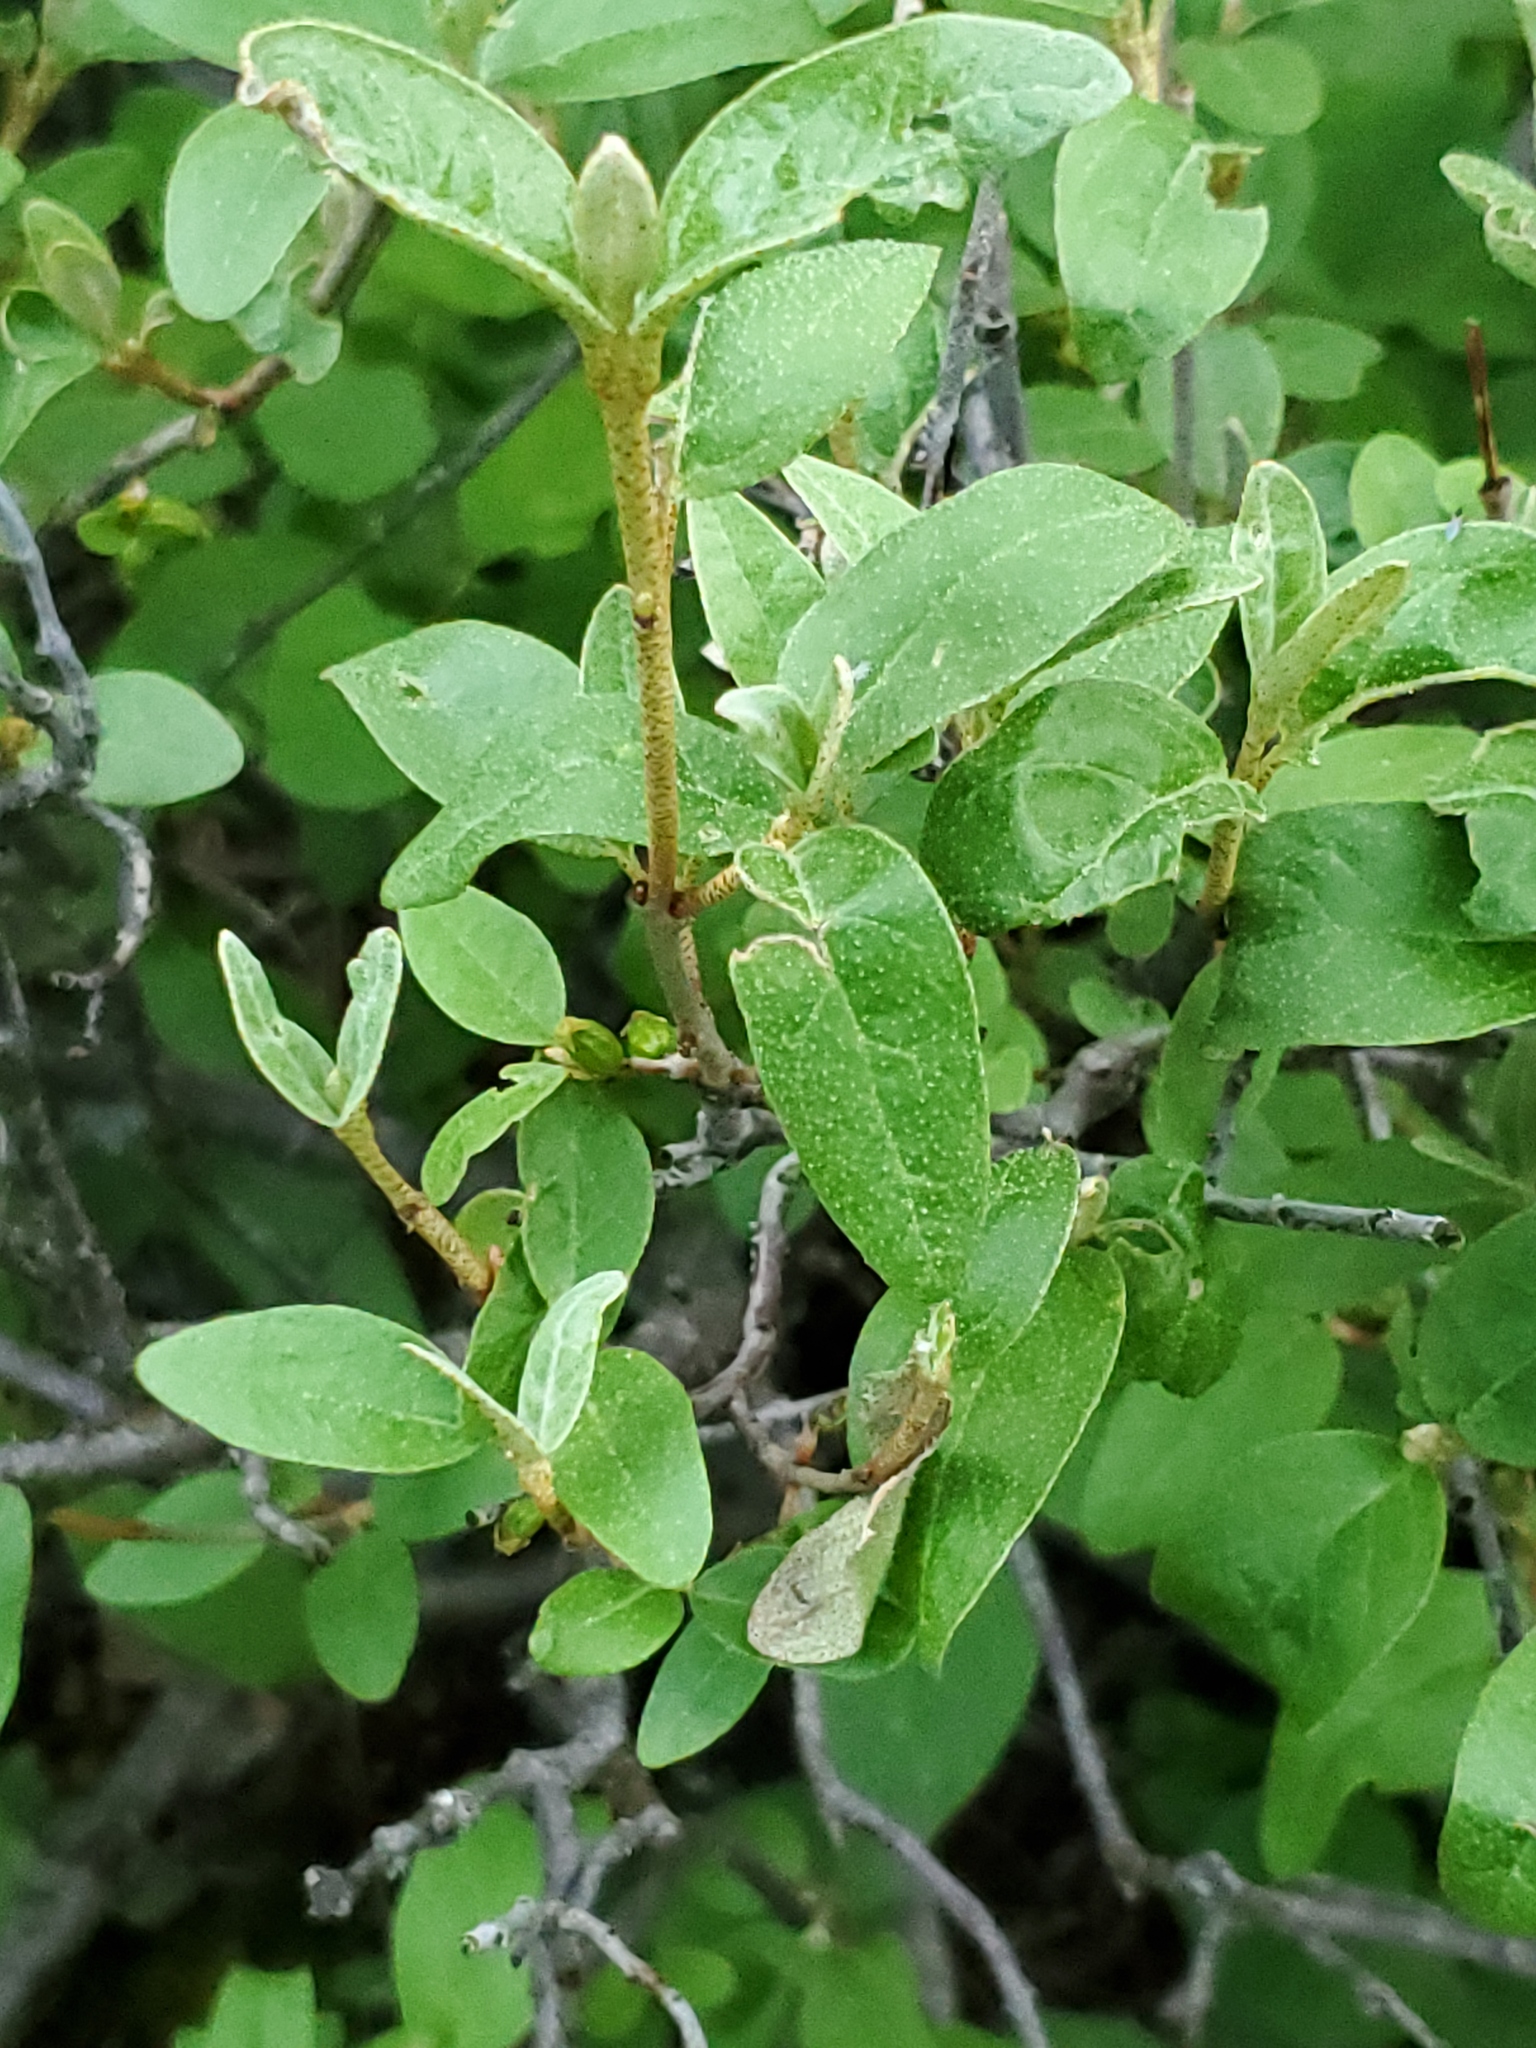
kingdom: Plantae
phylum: Tracheophyta
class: Magnoliopsida
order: Rosales
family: Elaeagnaceae
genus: Shepherdia
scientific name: Shepherdia canadensis
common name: Soapberry
